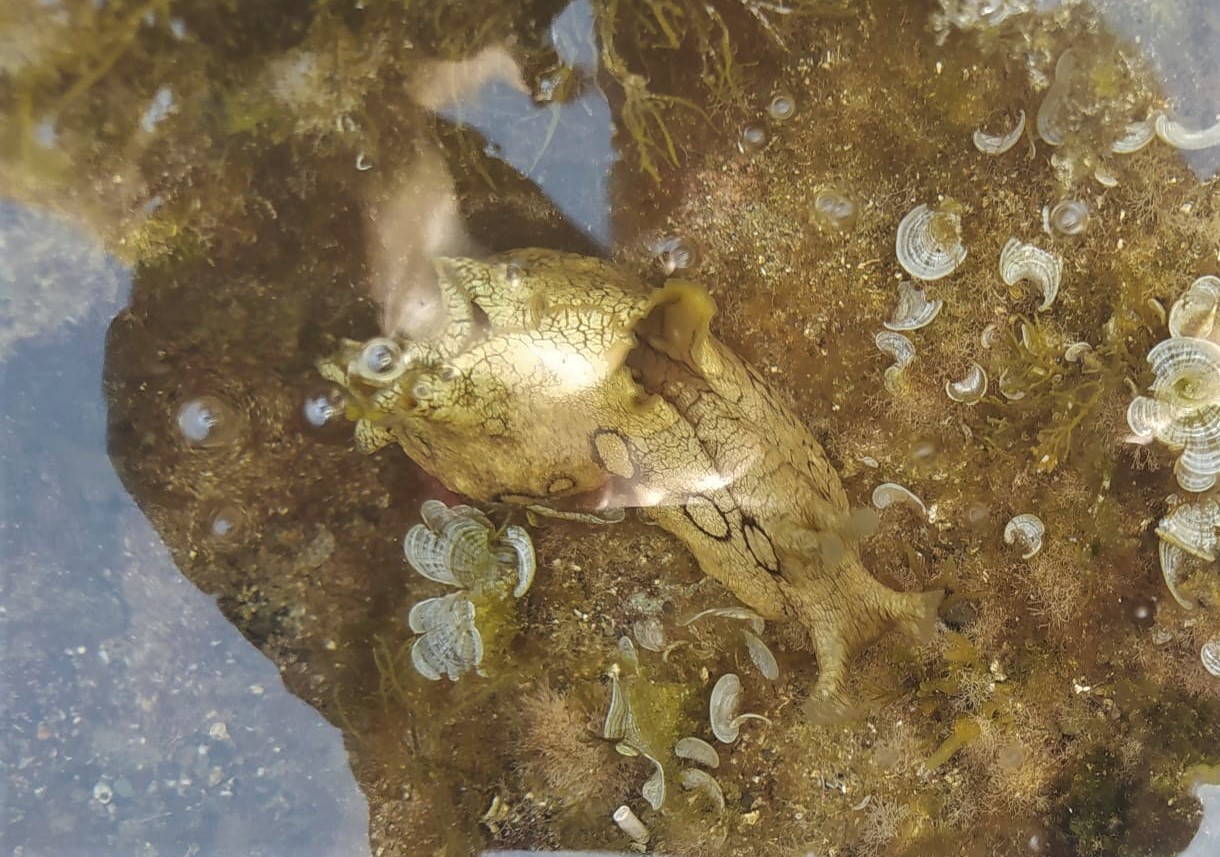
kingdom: Animalia
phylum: Mollusca
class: Gastropoda
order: Aplysiida
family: Aplysiidae
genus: Aplysia
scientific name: Aplysia dactylomela
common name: Large-spotted sea hare
